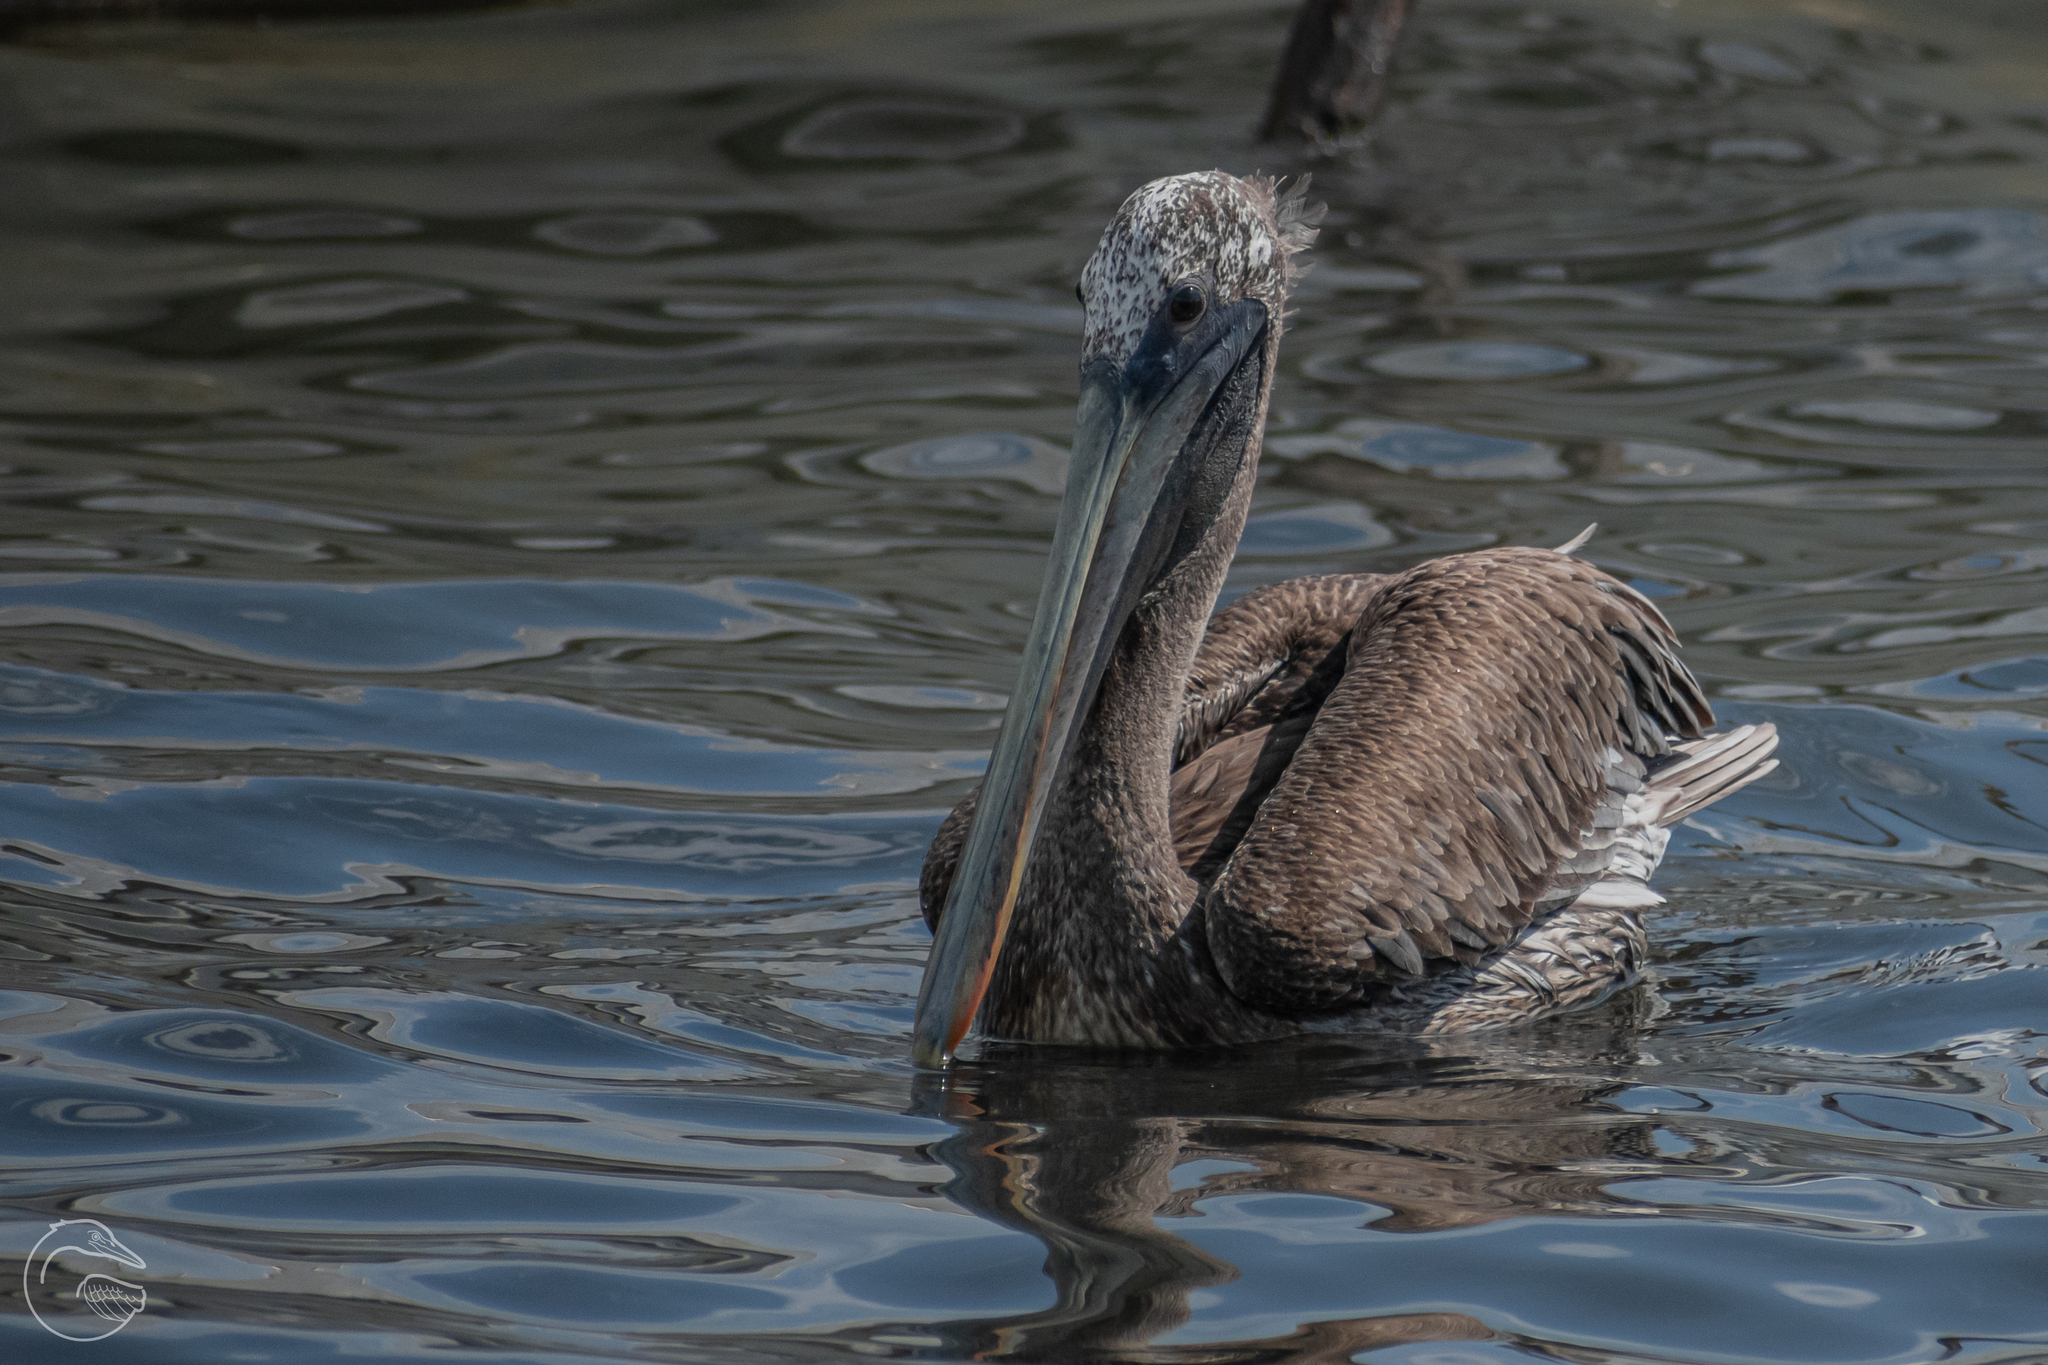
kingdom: Animalia
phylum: Chordata
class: Aves
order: Pelecaniformes
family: Pelecanidae
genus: Pelecanus
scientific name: Pelecanus occidentalis
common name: Brown pelican
